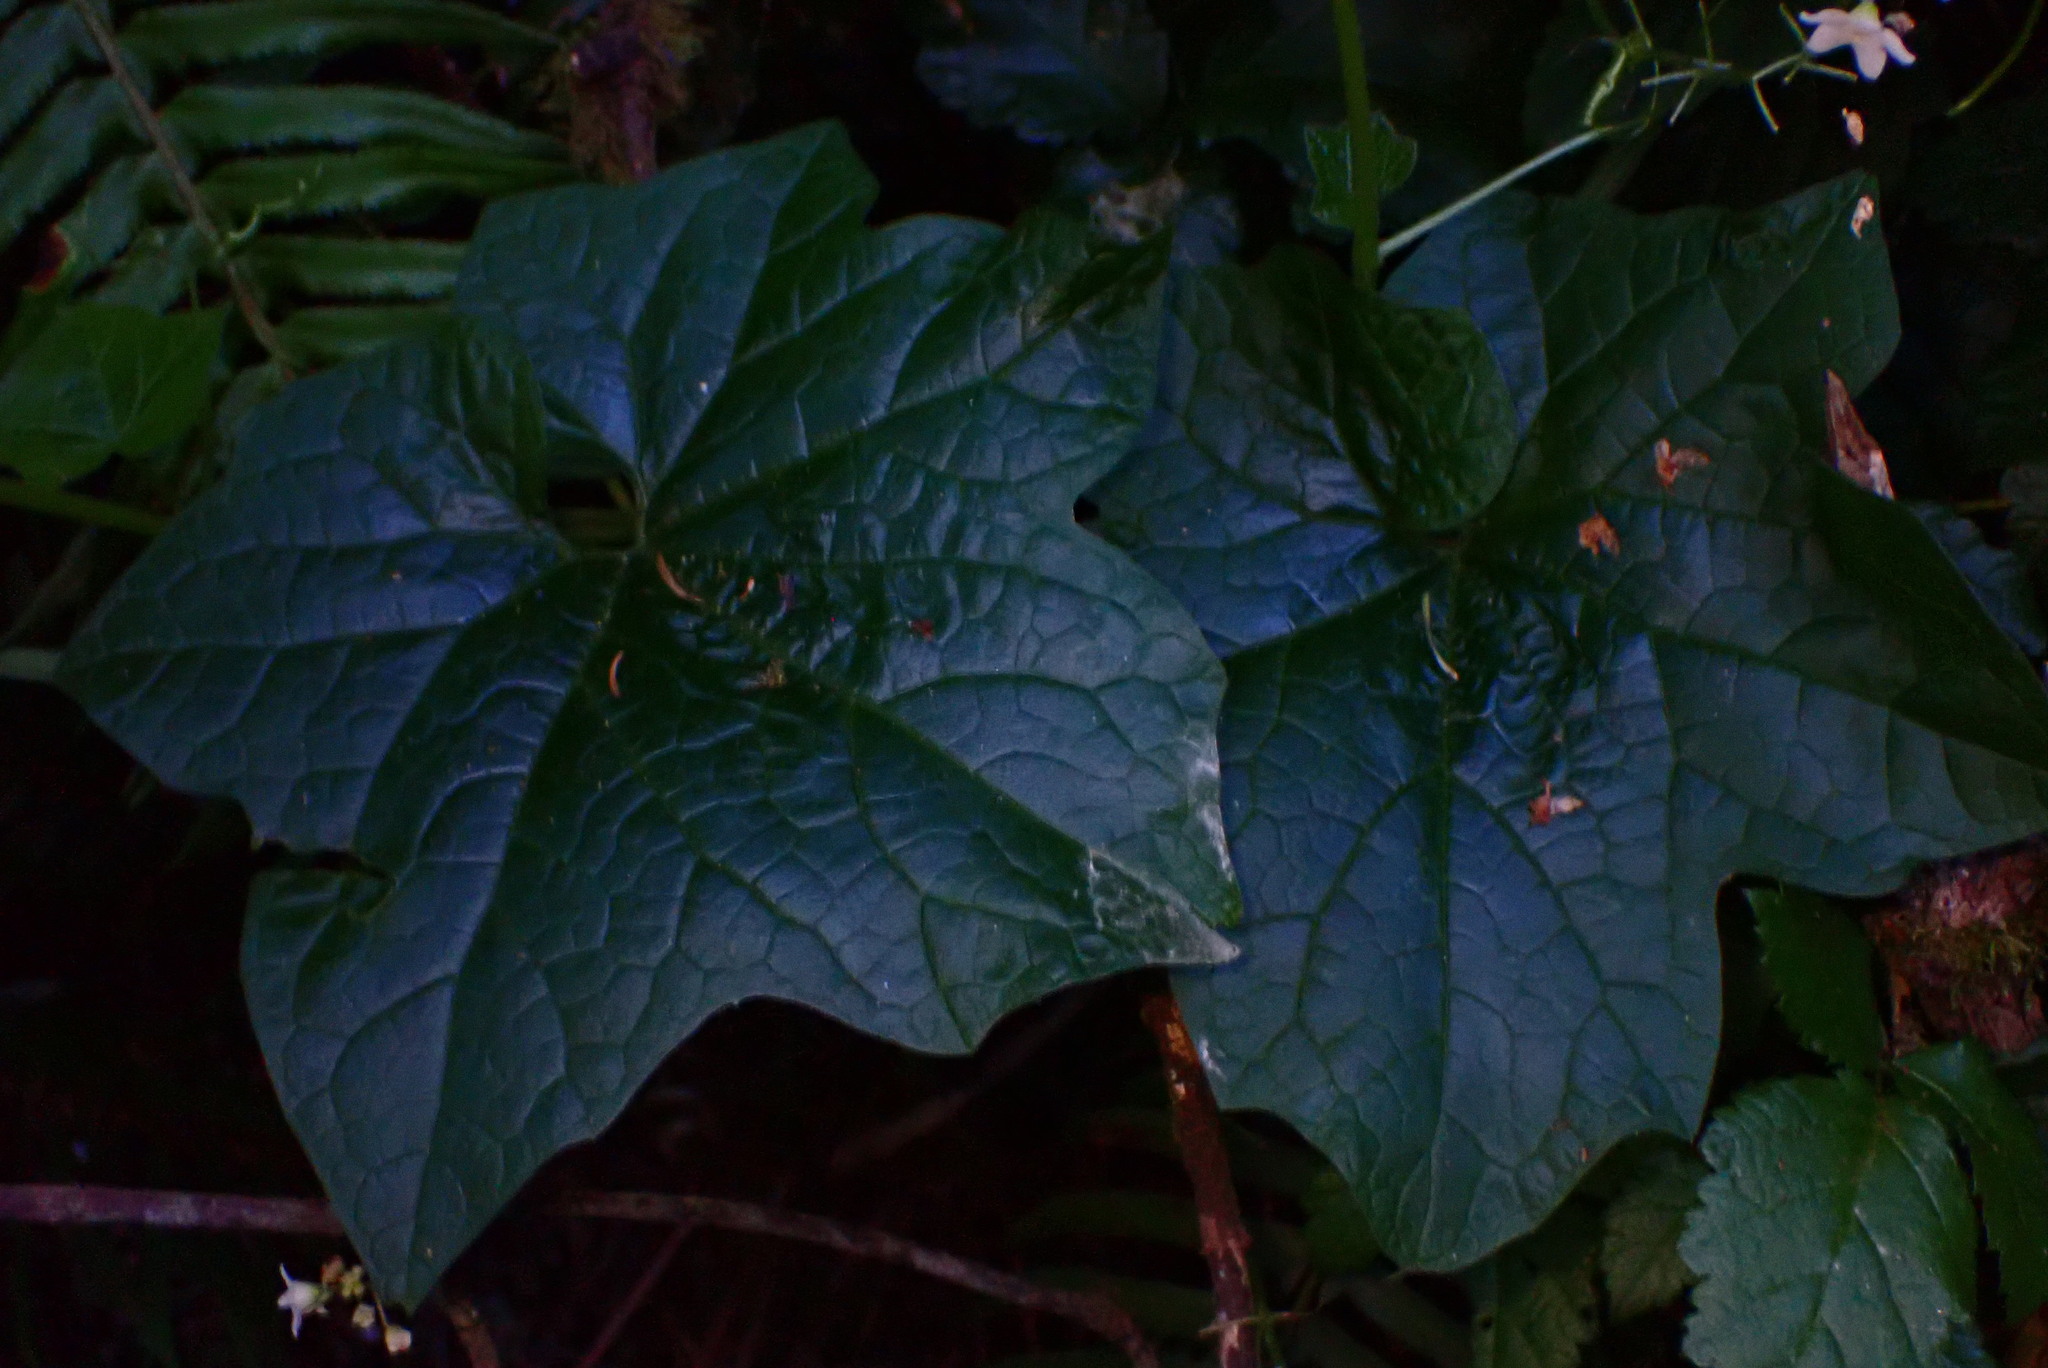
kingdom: Plantae
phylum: Tracheophyta
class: Magnoliopsida
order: Cucurbitales
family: Cucurbitaceae
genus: Marah
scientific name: Marah oregana
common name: Coastal manroot
